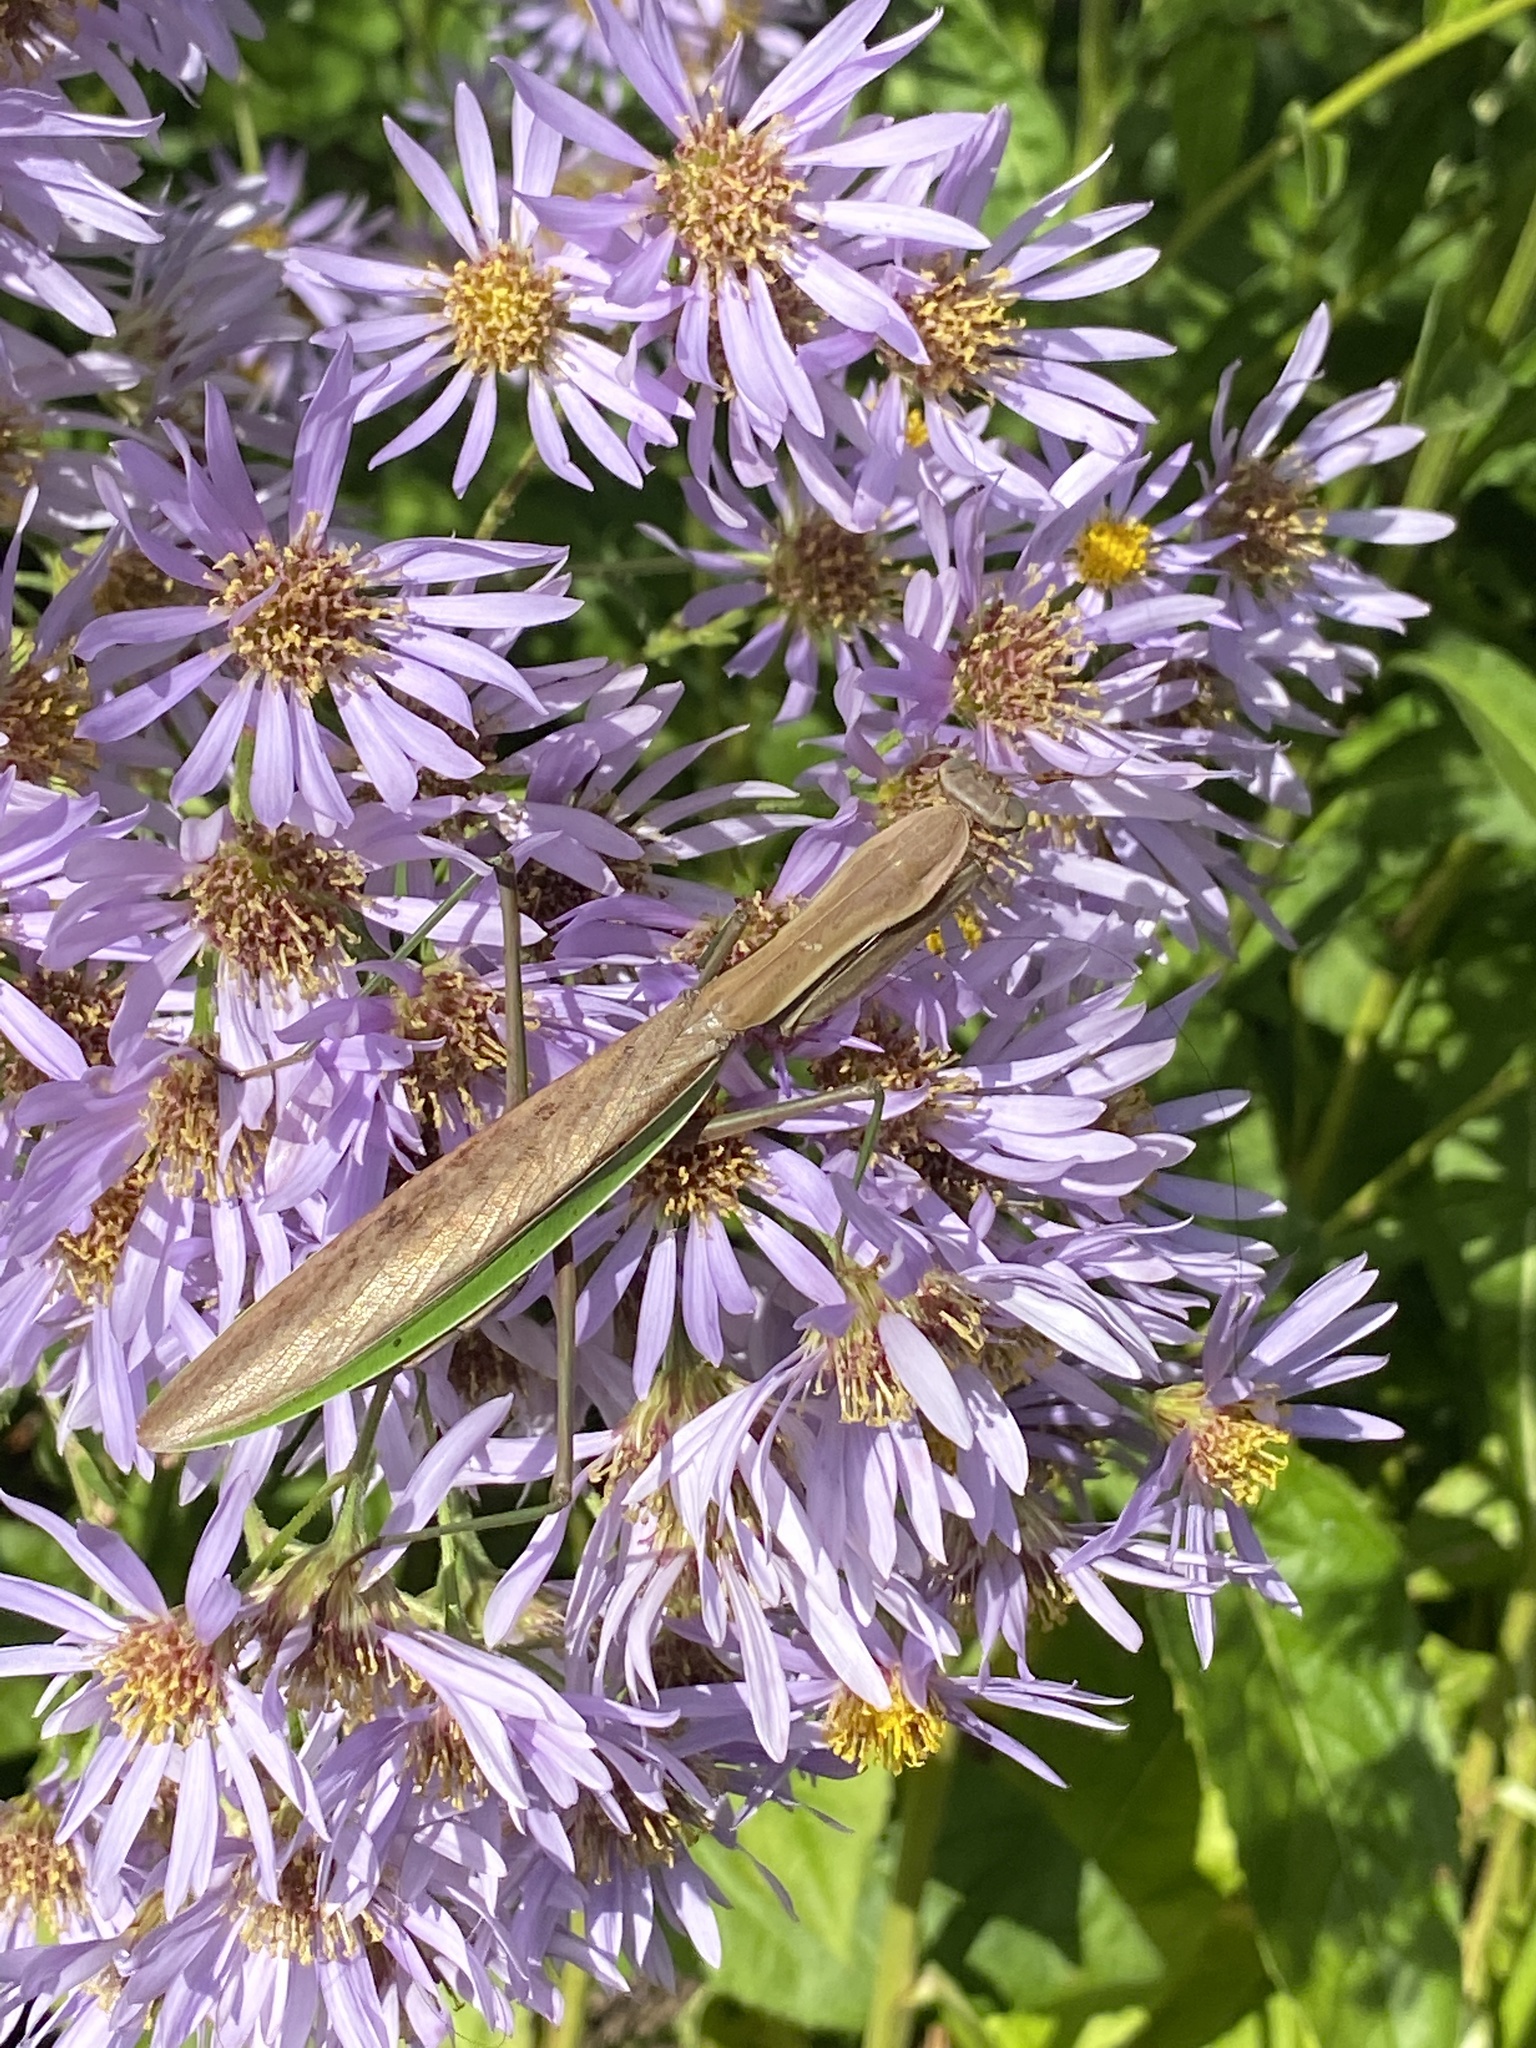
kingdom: Animalia
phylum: Arthropoda
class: Insecta
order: Mantodea
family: Mantidae
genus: Tenodera
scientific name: Tenodera sinensis
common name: Chinese mantis
